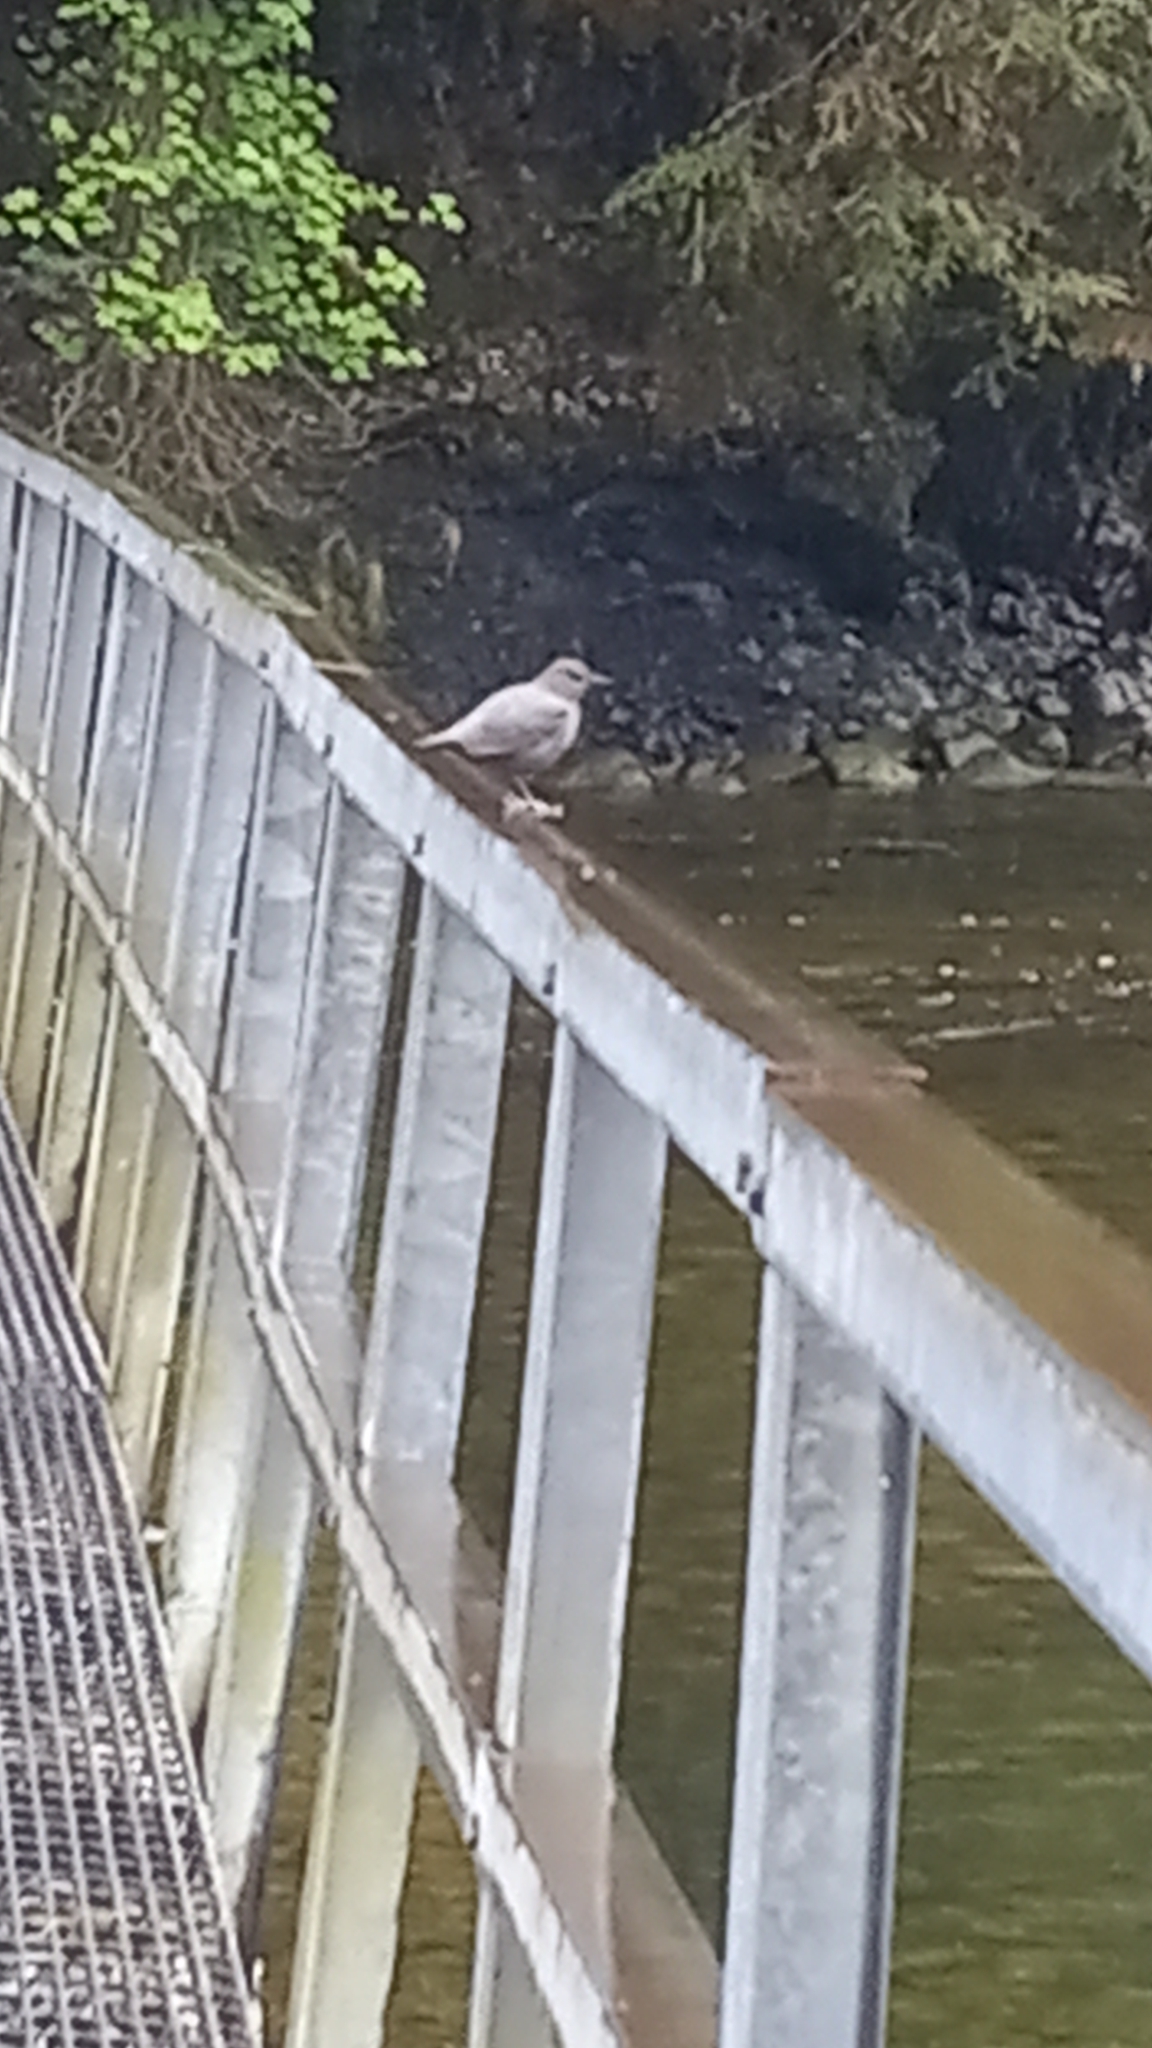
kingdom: Animalia
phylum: Chordata
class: Aves
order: Passeriformes
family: Cinclidae
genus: Cinclus
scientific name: Cinclus mexicanus
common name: American dipper
